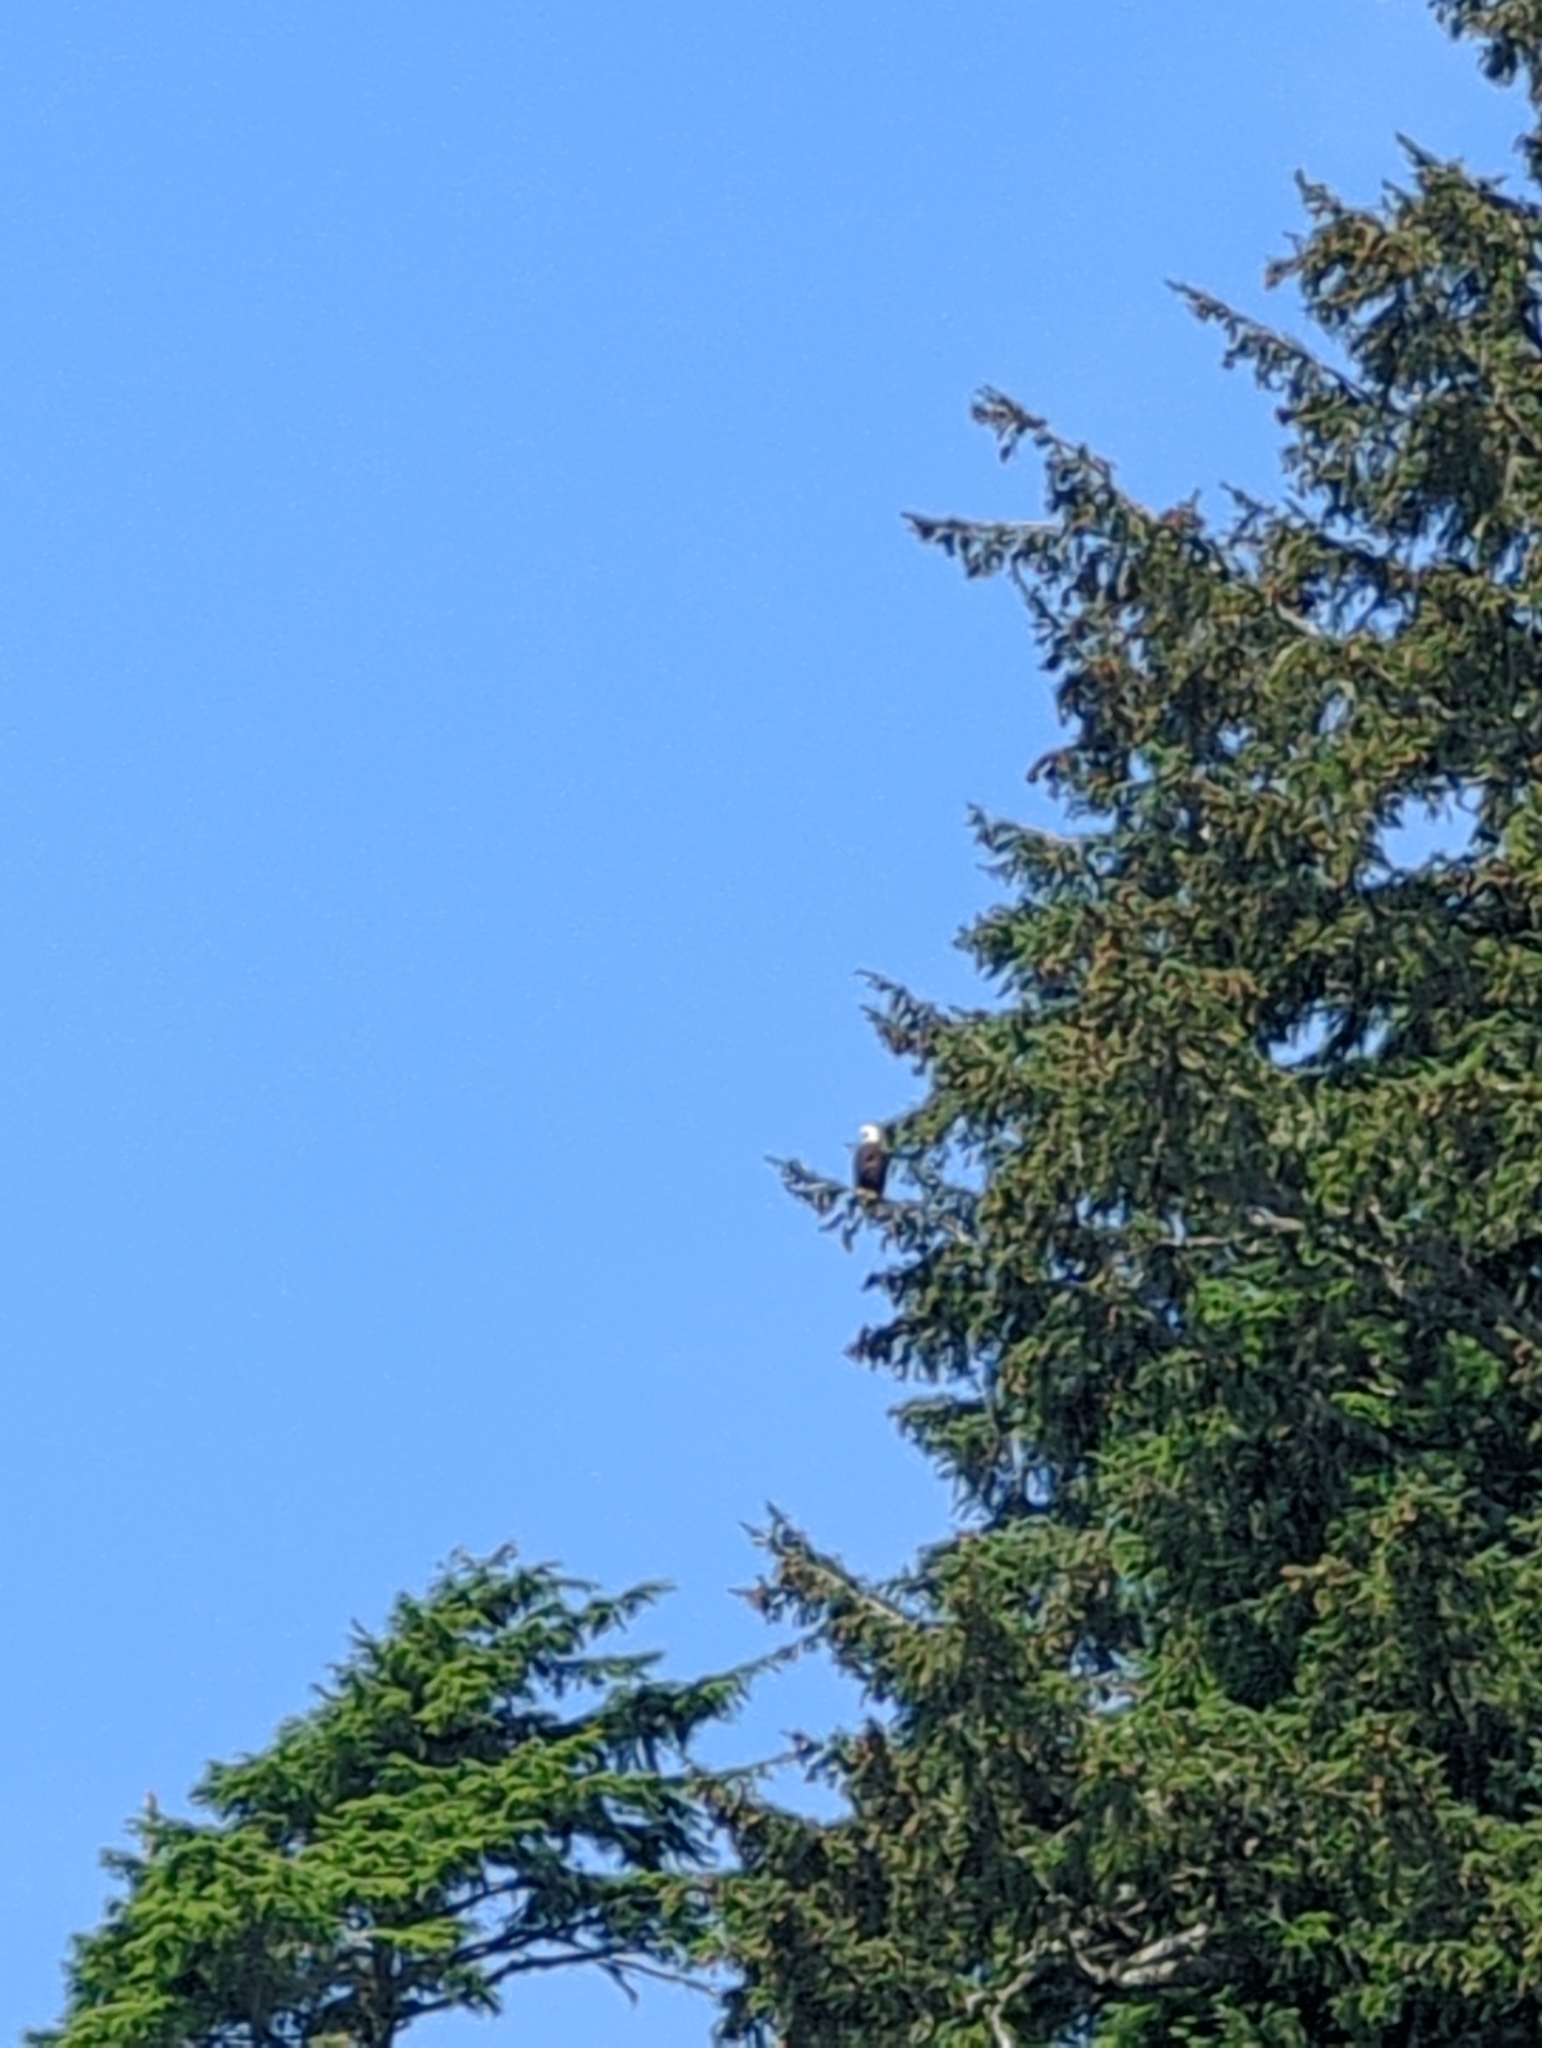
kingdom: Animalia
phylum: Chordata
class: Aves
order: Accipitriformes
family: Accipitridae
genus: Haliaeetus
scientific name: Haliaeetus leucocephalus
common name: Bald eagle
